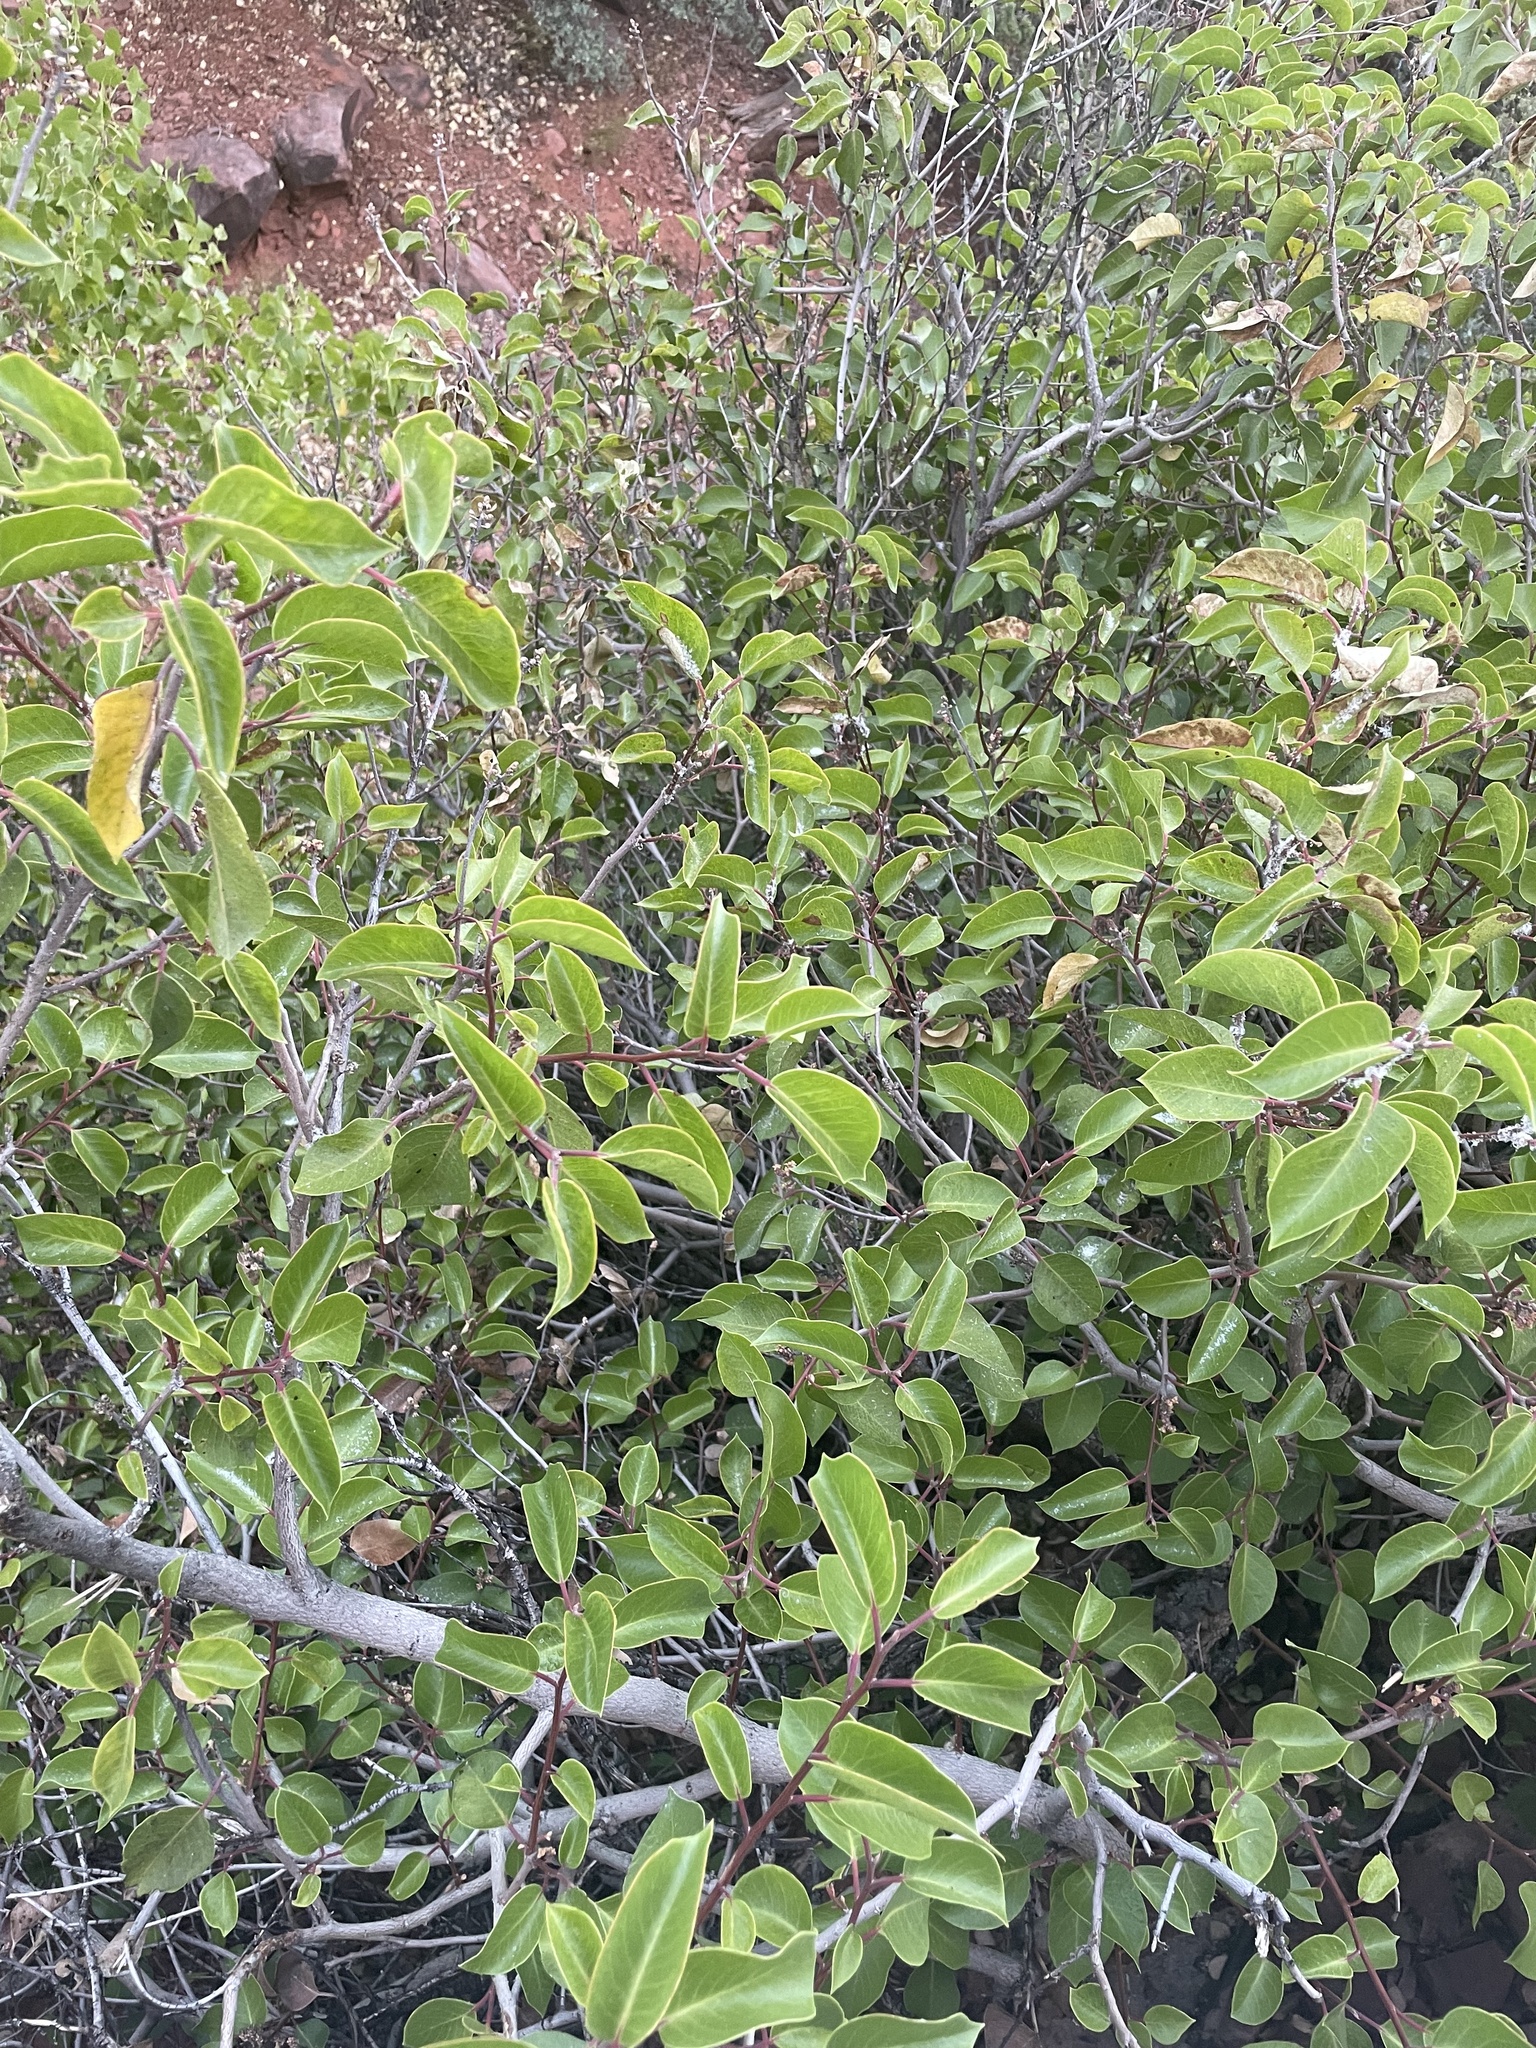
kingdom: Plantae
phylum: Tracheophyta
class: Magnoliopsida
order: Sapindales
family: Anacardiaceae
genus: Rhus
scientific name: Rhus ovata
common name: Sugar sumac
